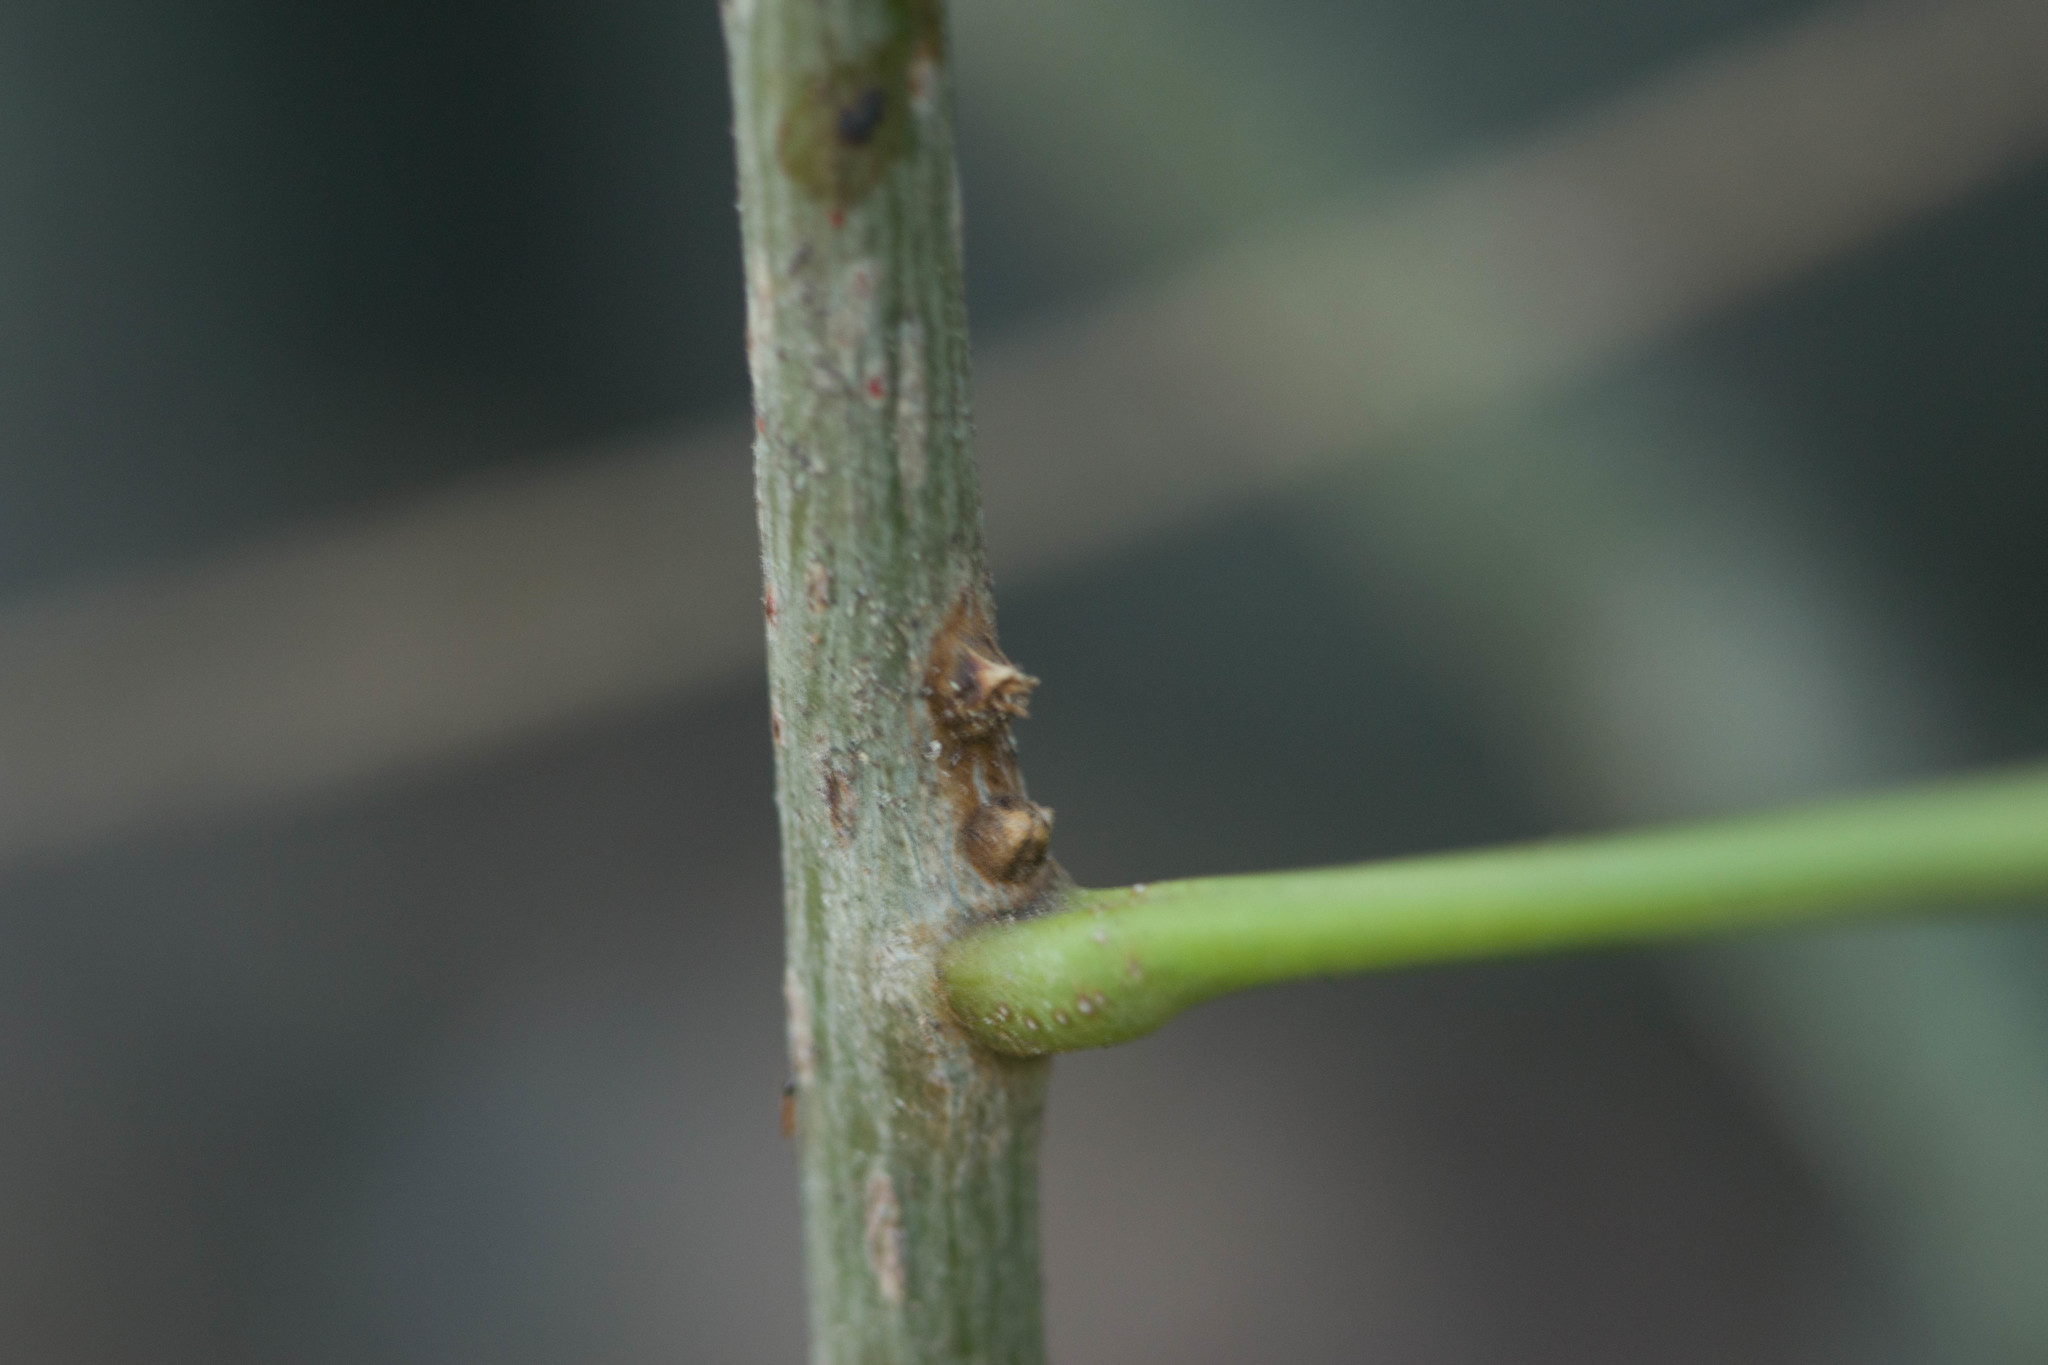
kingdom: Plantae
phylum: Tracheophyta
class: Magnoliopsida
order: Sapindales
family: Sapindaceae
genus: Sapindus
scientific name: Sapindus oahuensis
